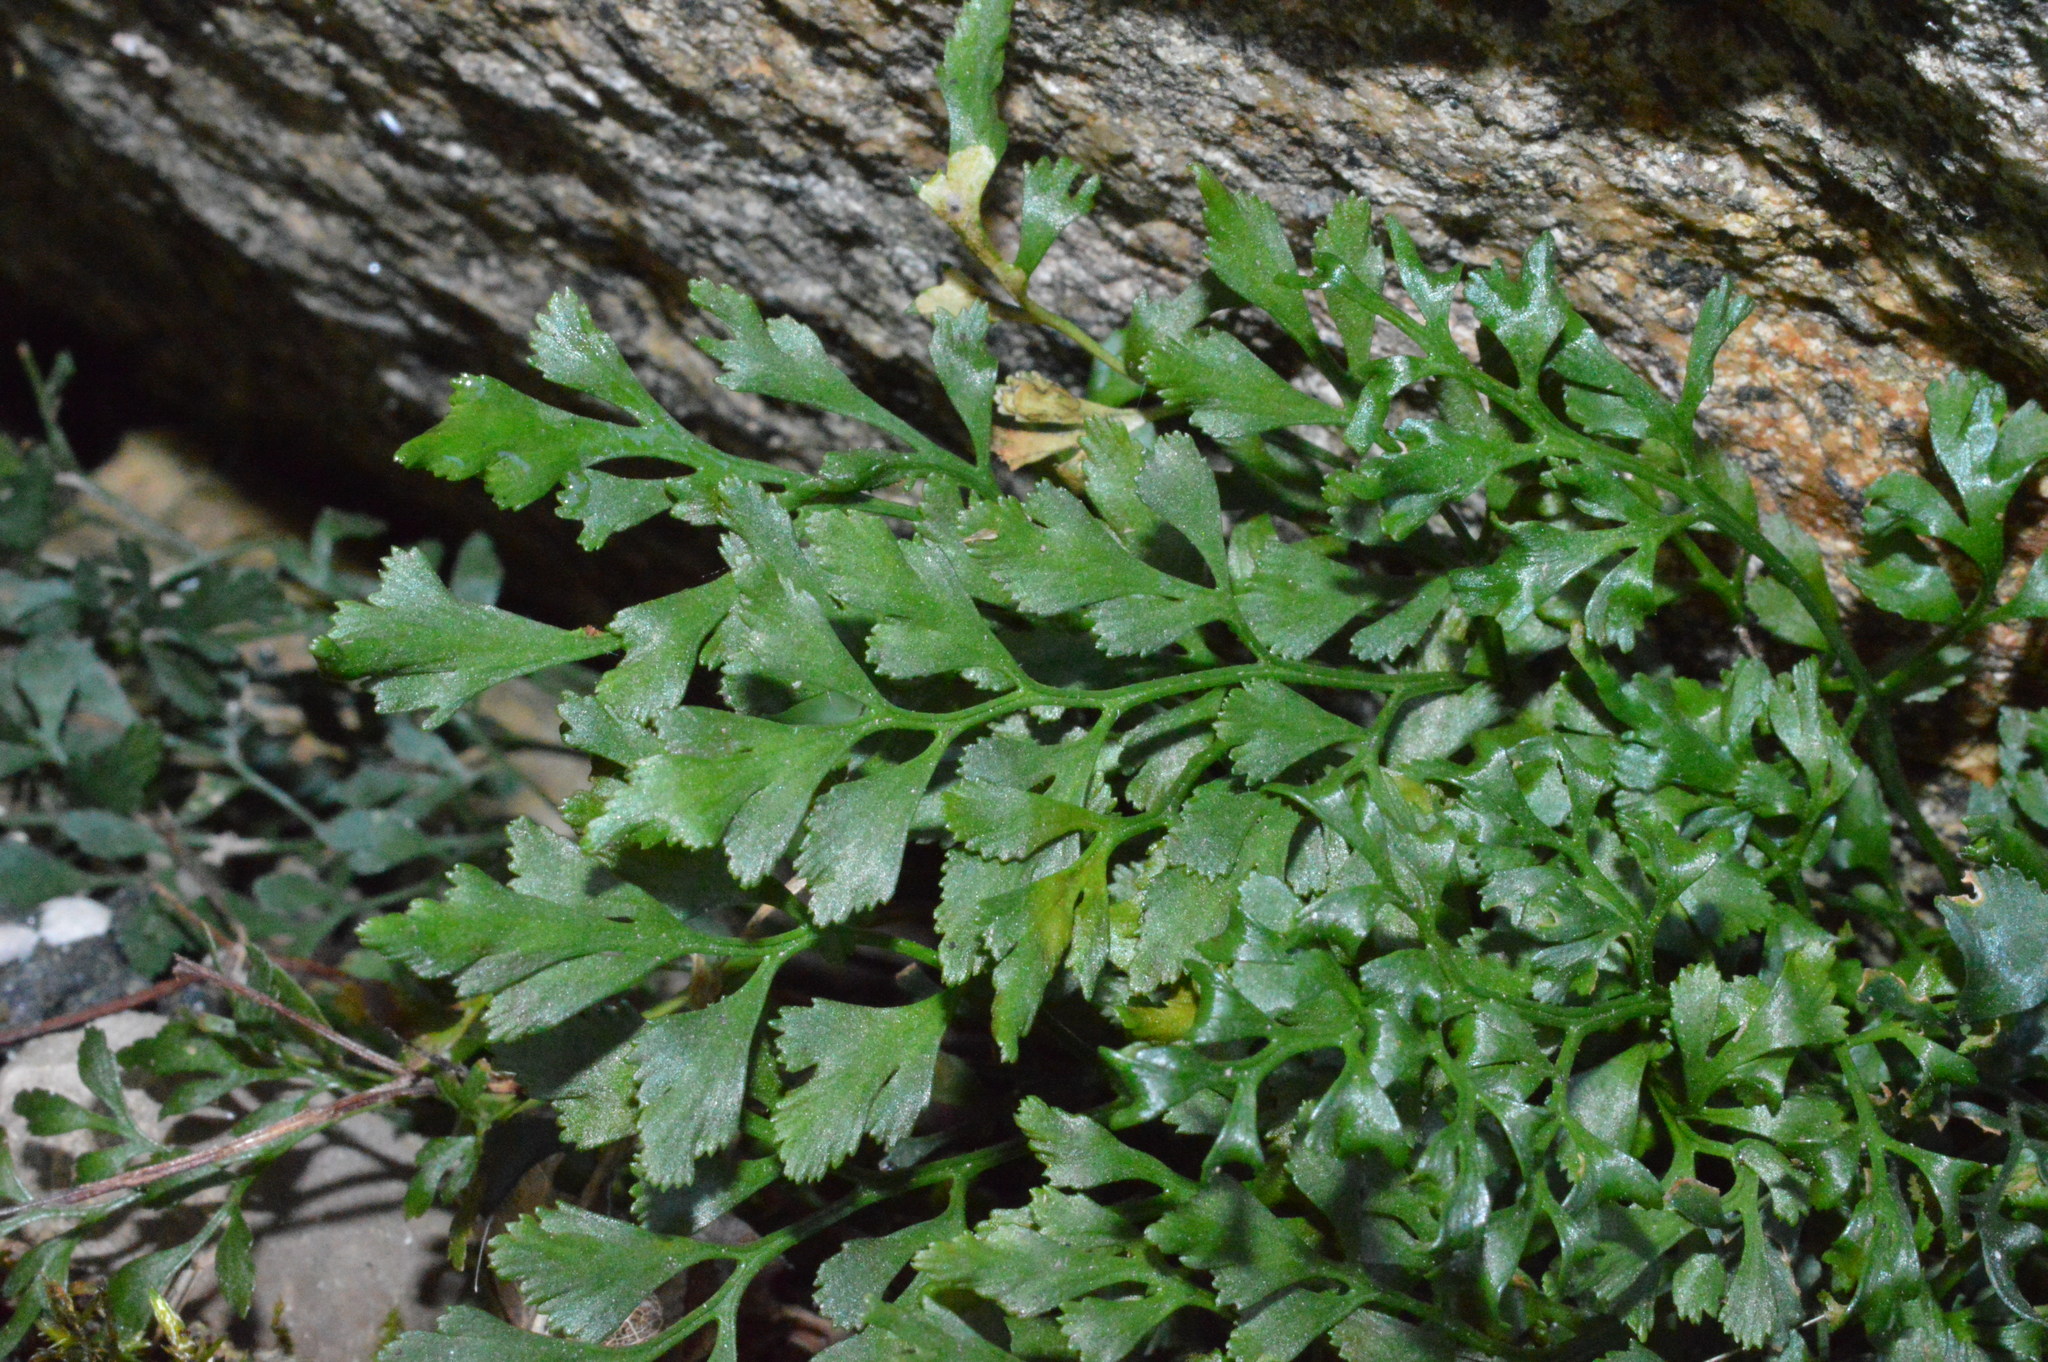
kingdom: Plantae
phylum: Tracheophyta
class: Polypodiopsida
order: Polypodiales
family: Aspleniaceae
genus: Asplenium
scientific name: Asplenium ruta-muraria
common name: Wall-rue
